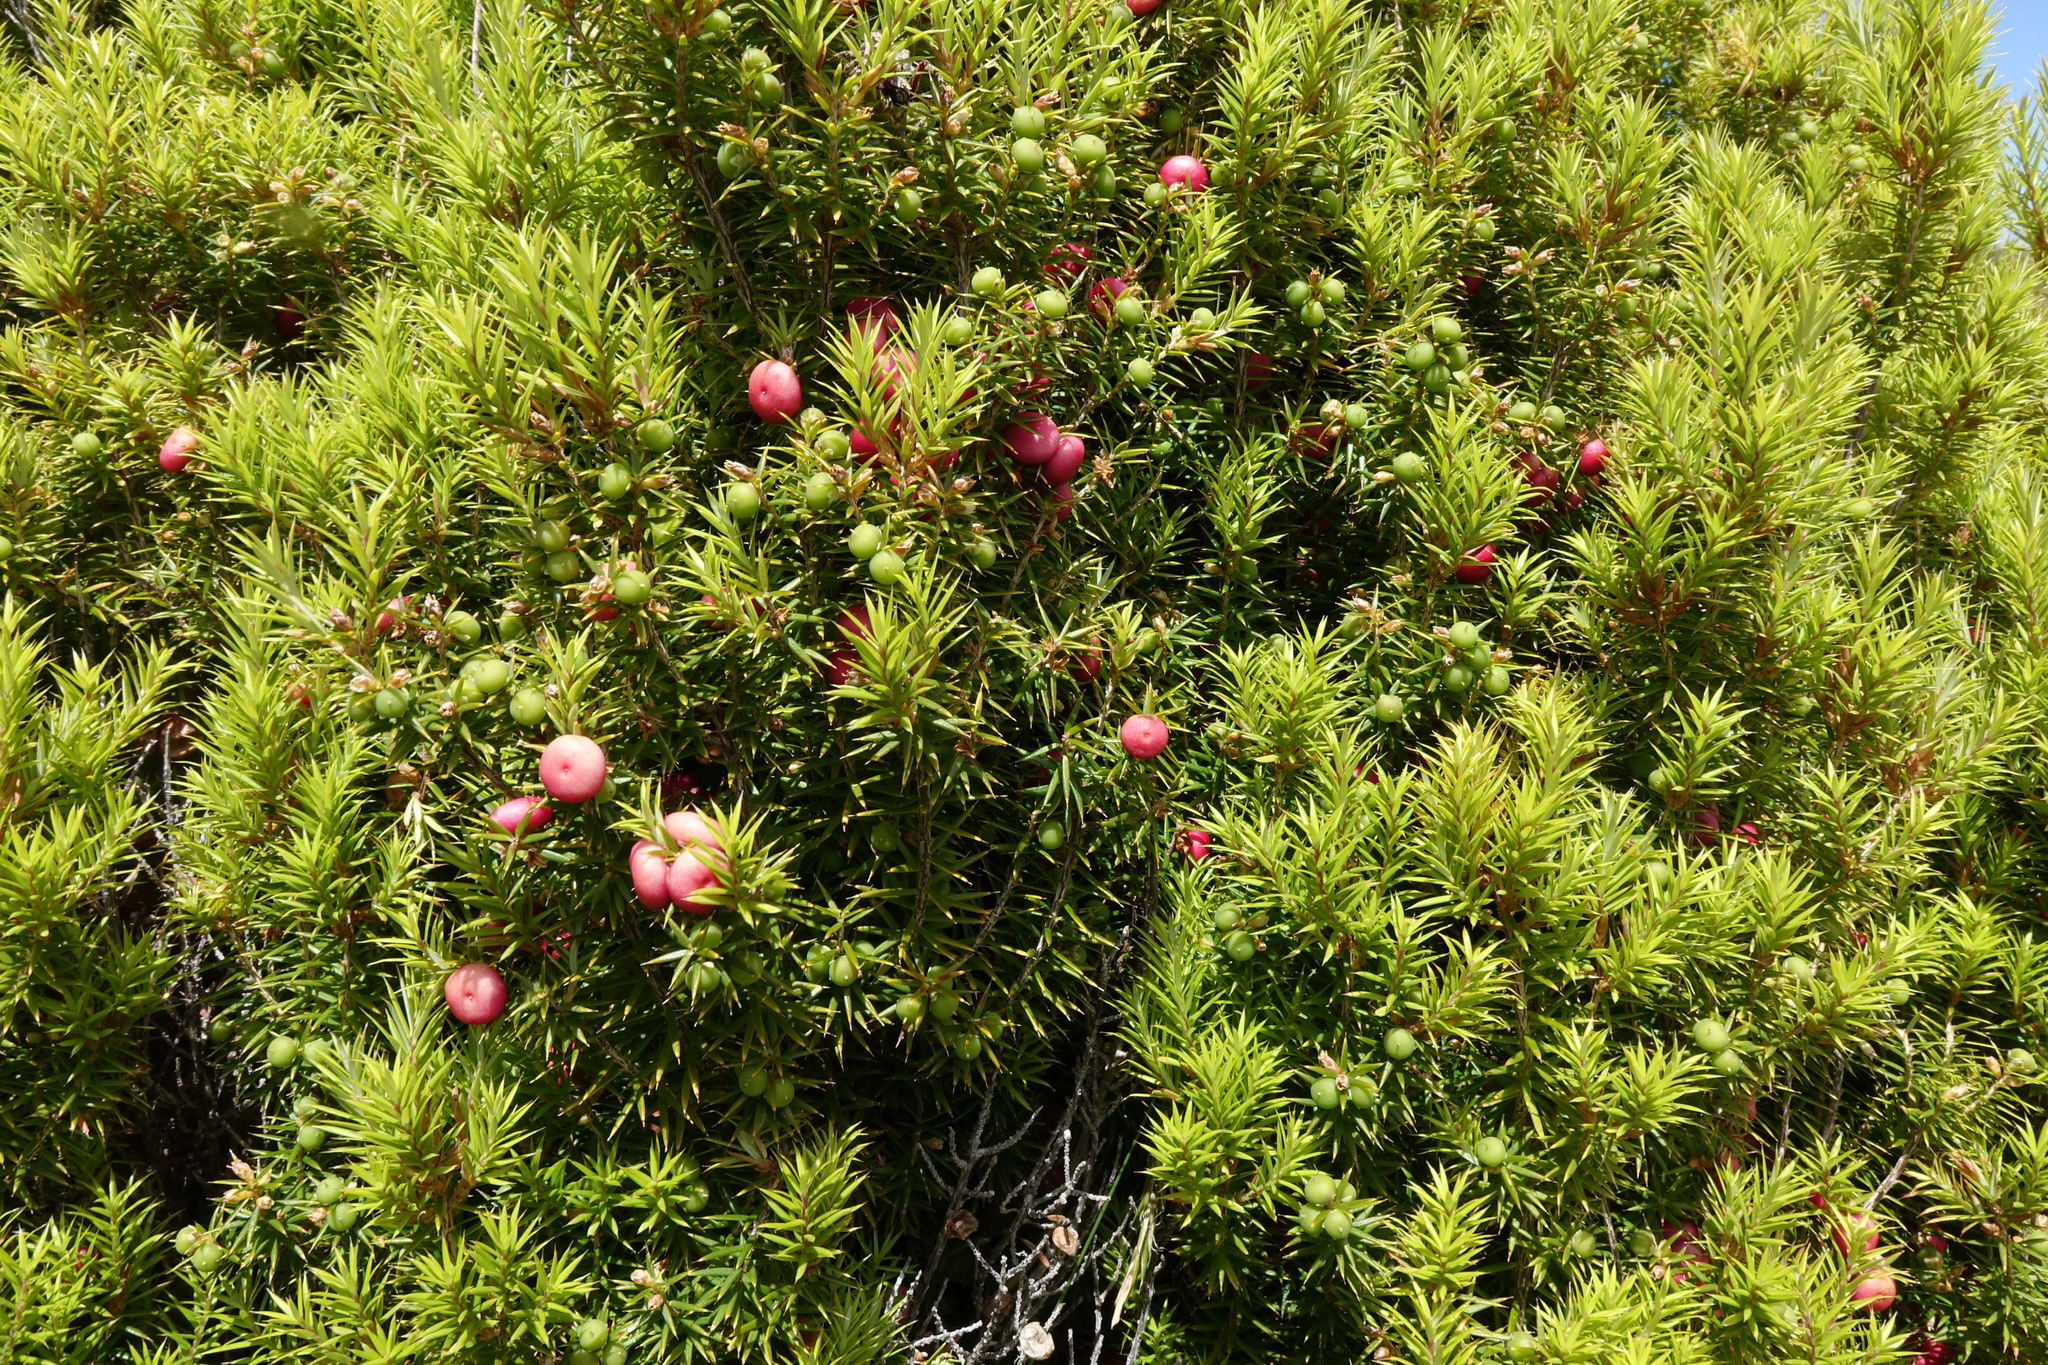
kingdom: Plantae
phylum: Tracheophyta
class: Magnoliopsida
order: Ericales
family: Ericaceae
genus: Leptecophylla
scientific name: Leptecophylla juniperina
